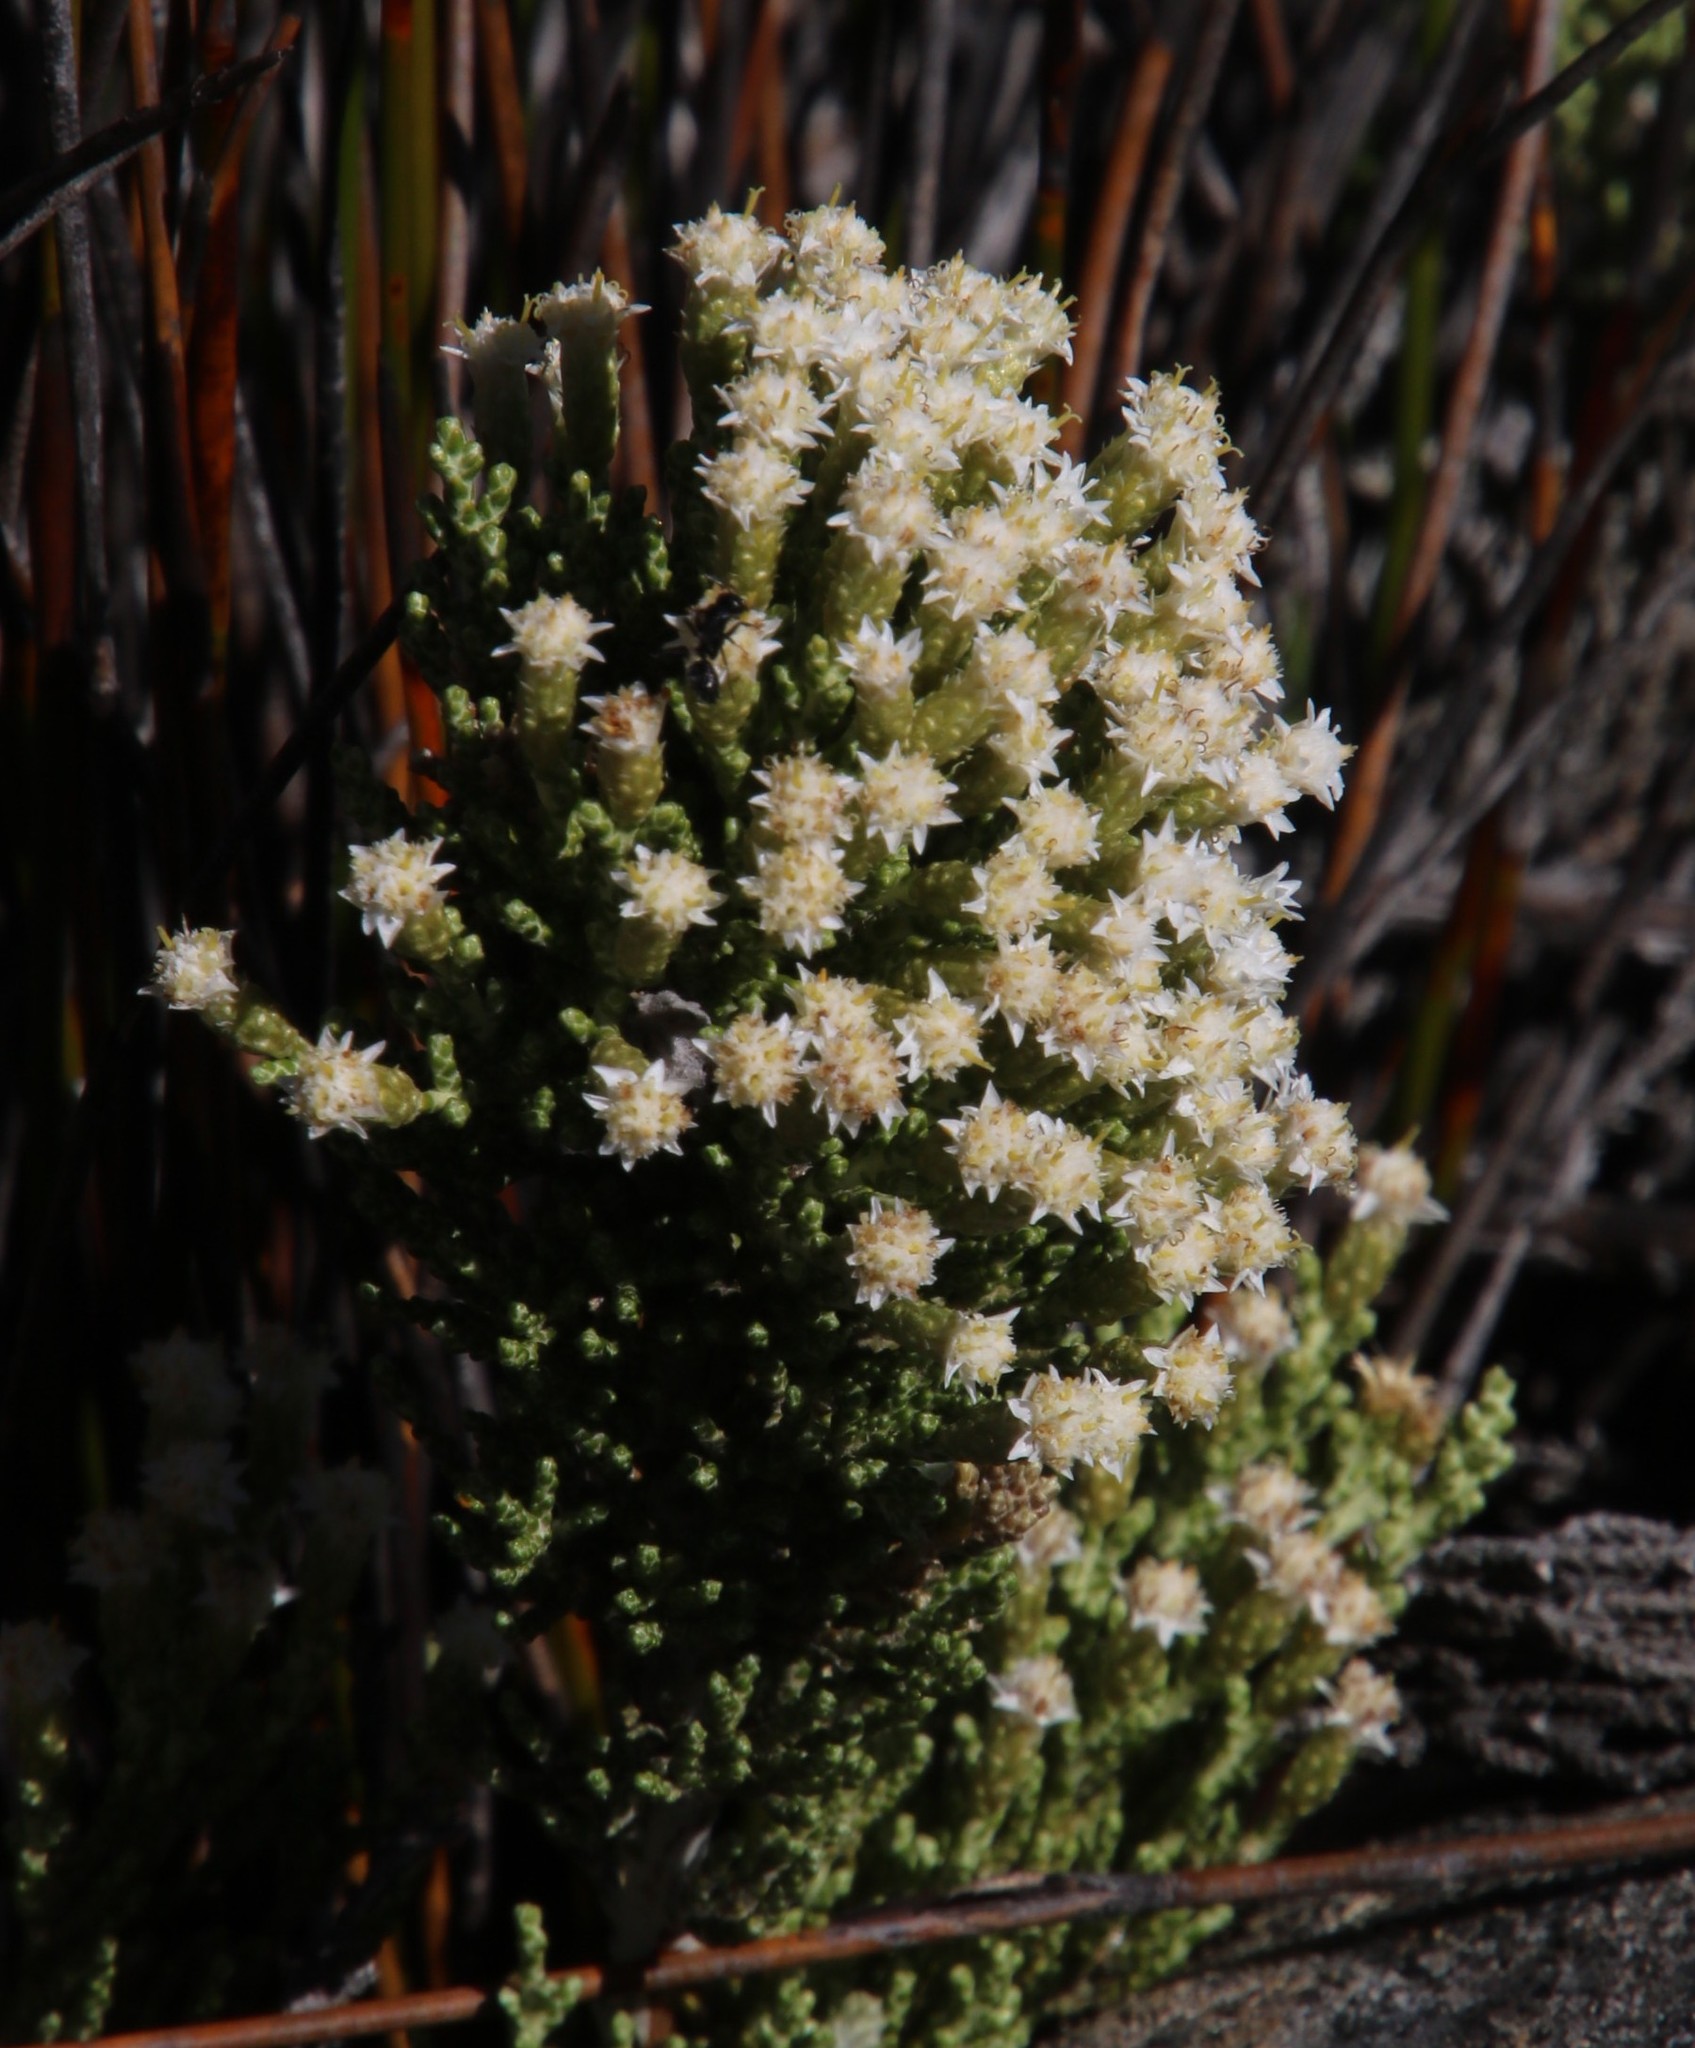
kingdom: Plantae
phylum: Tracheophyta
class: Magnoliopsida
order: Asterales
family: Asteraceae
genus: Dolichothrix
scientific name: Dolichothrix ericoides
